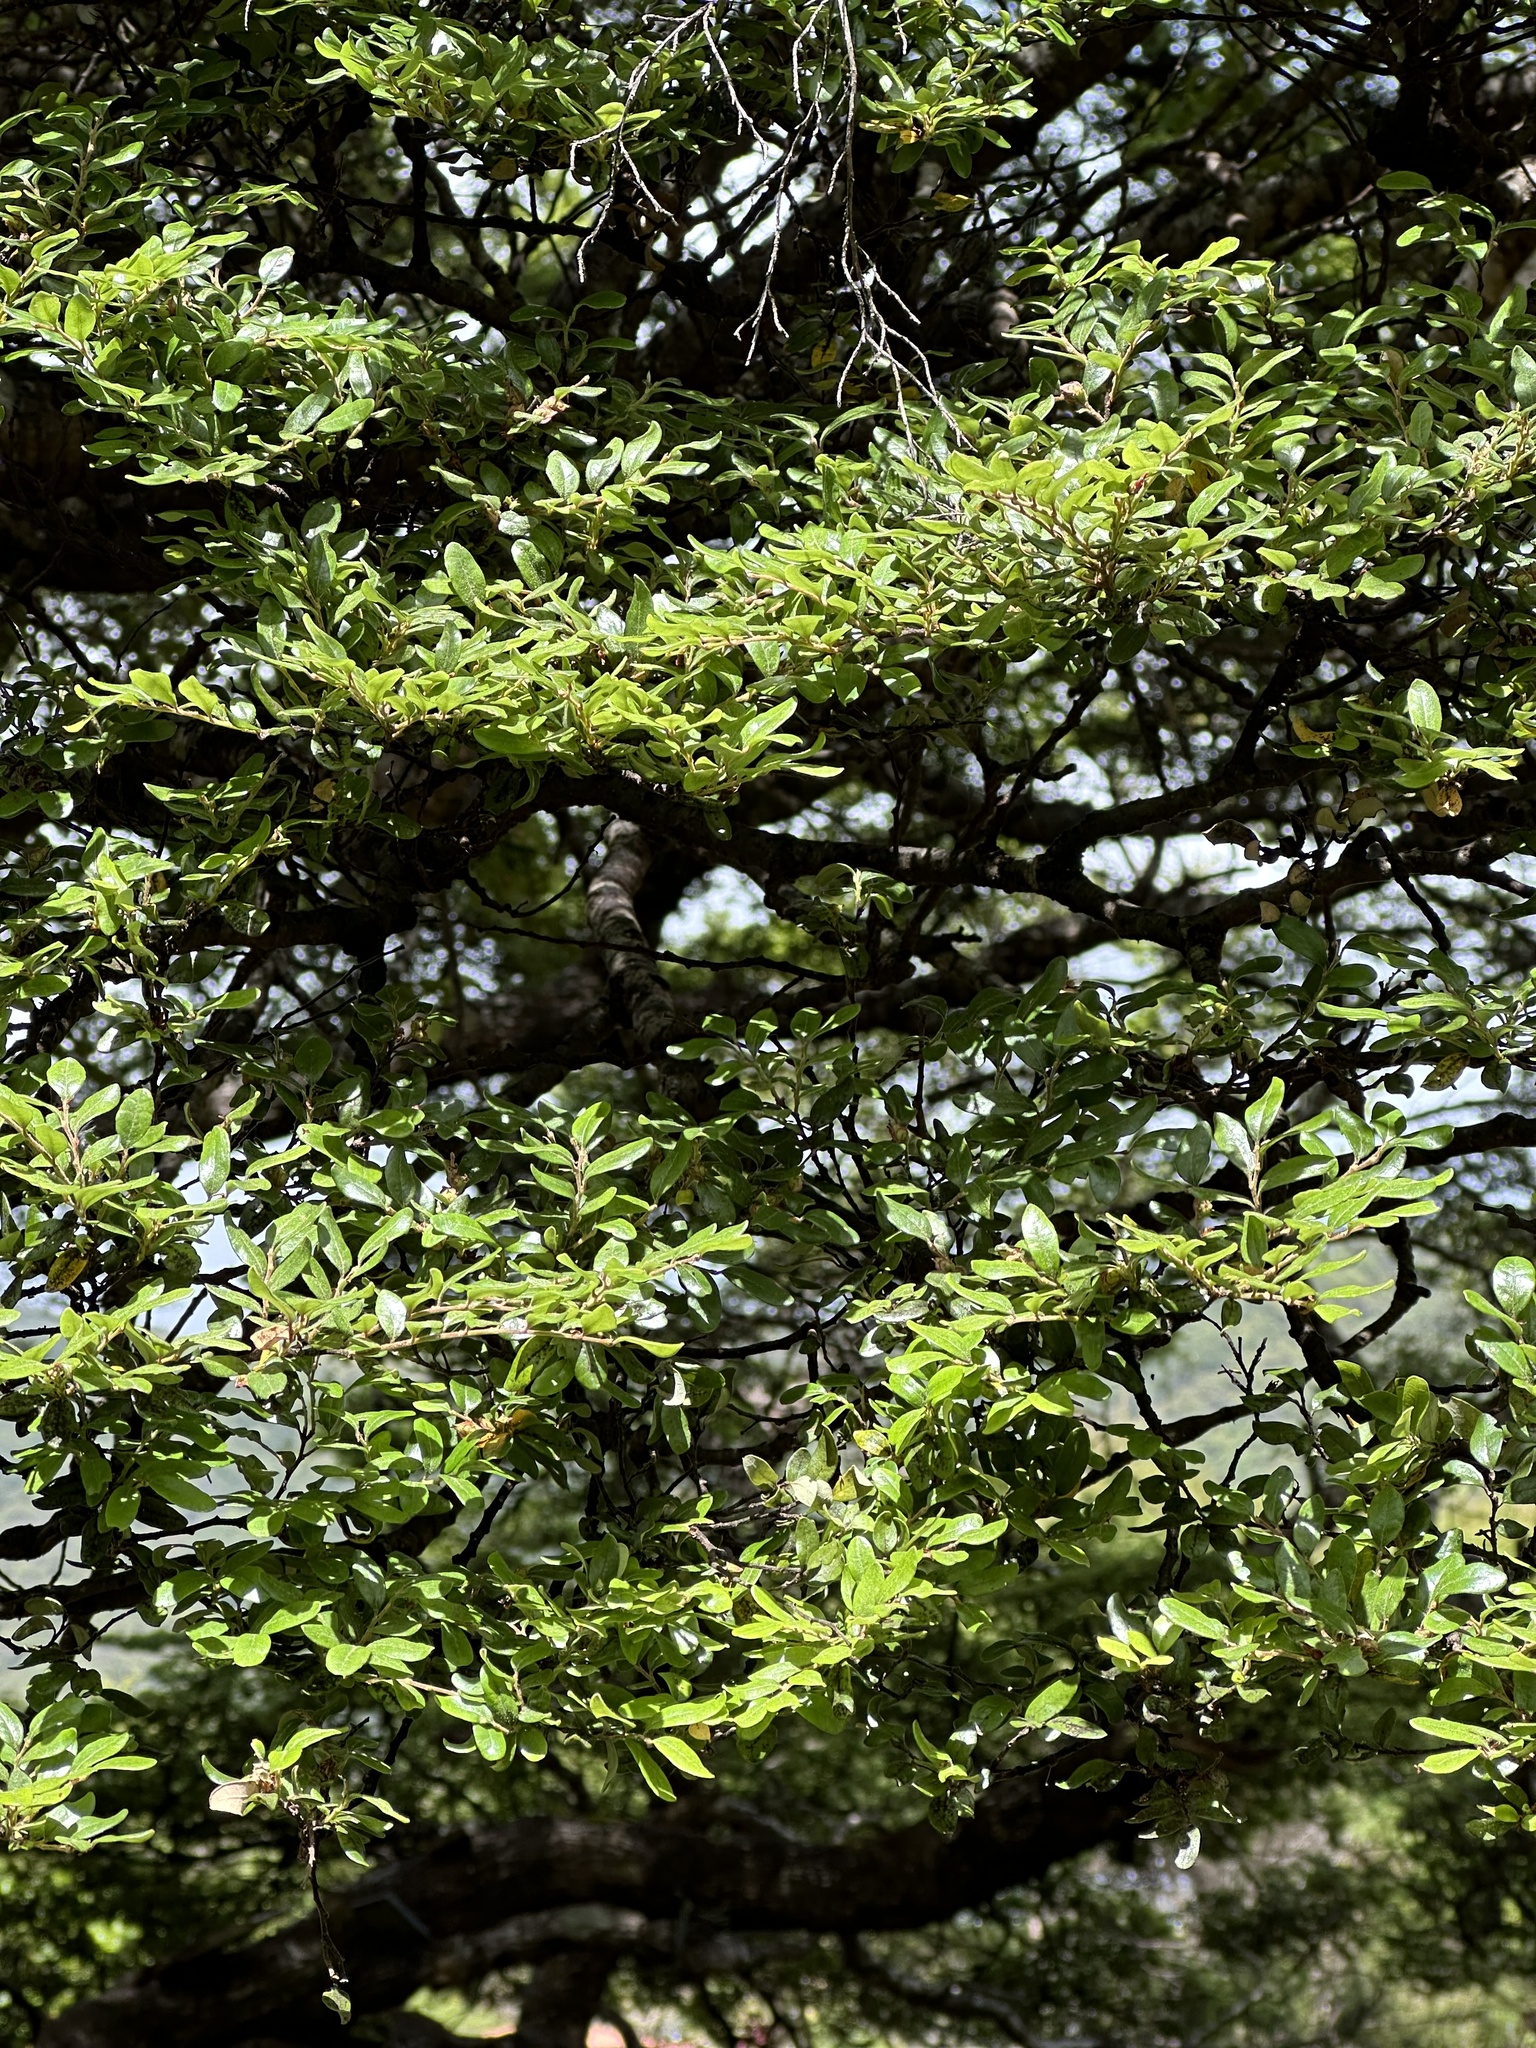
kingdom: Plantae
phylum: Tracheophyta
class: Magnoliopsida
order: Fagales
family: Nothofagaceae
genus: Nothofagus
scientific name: Nothofagus solandri
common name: Black beech
